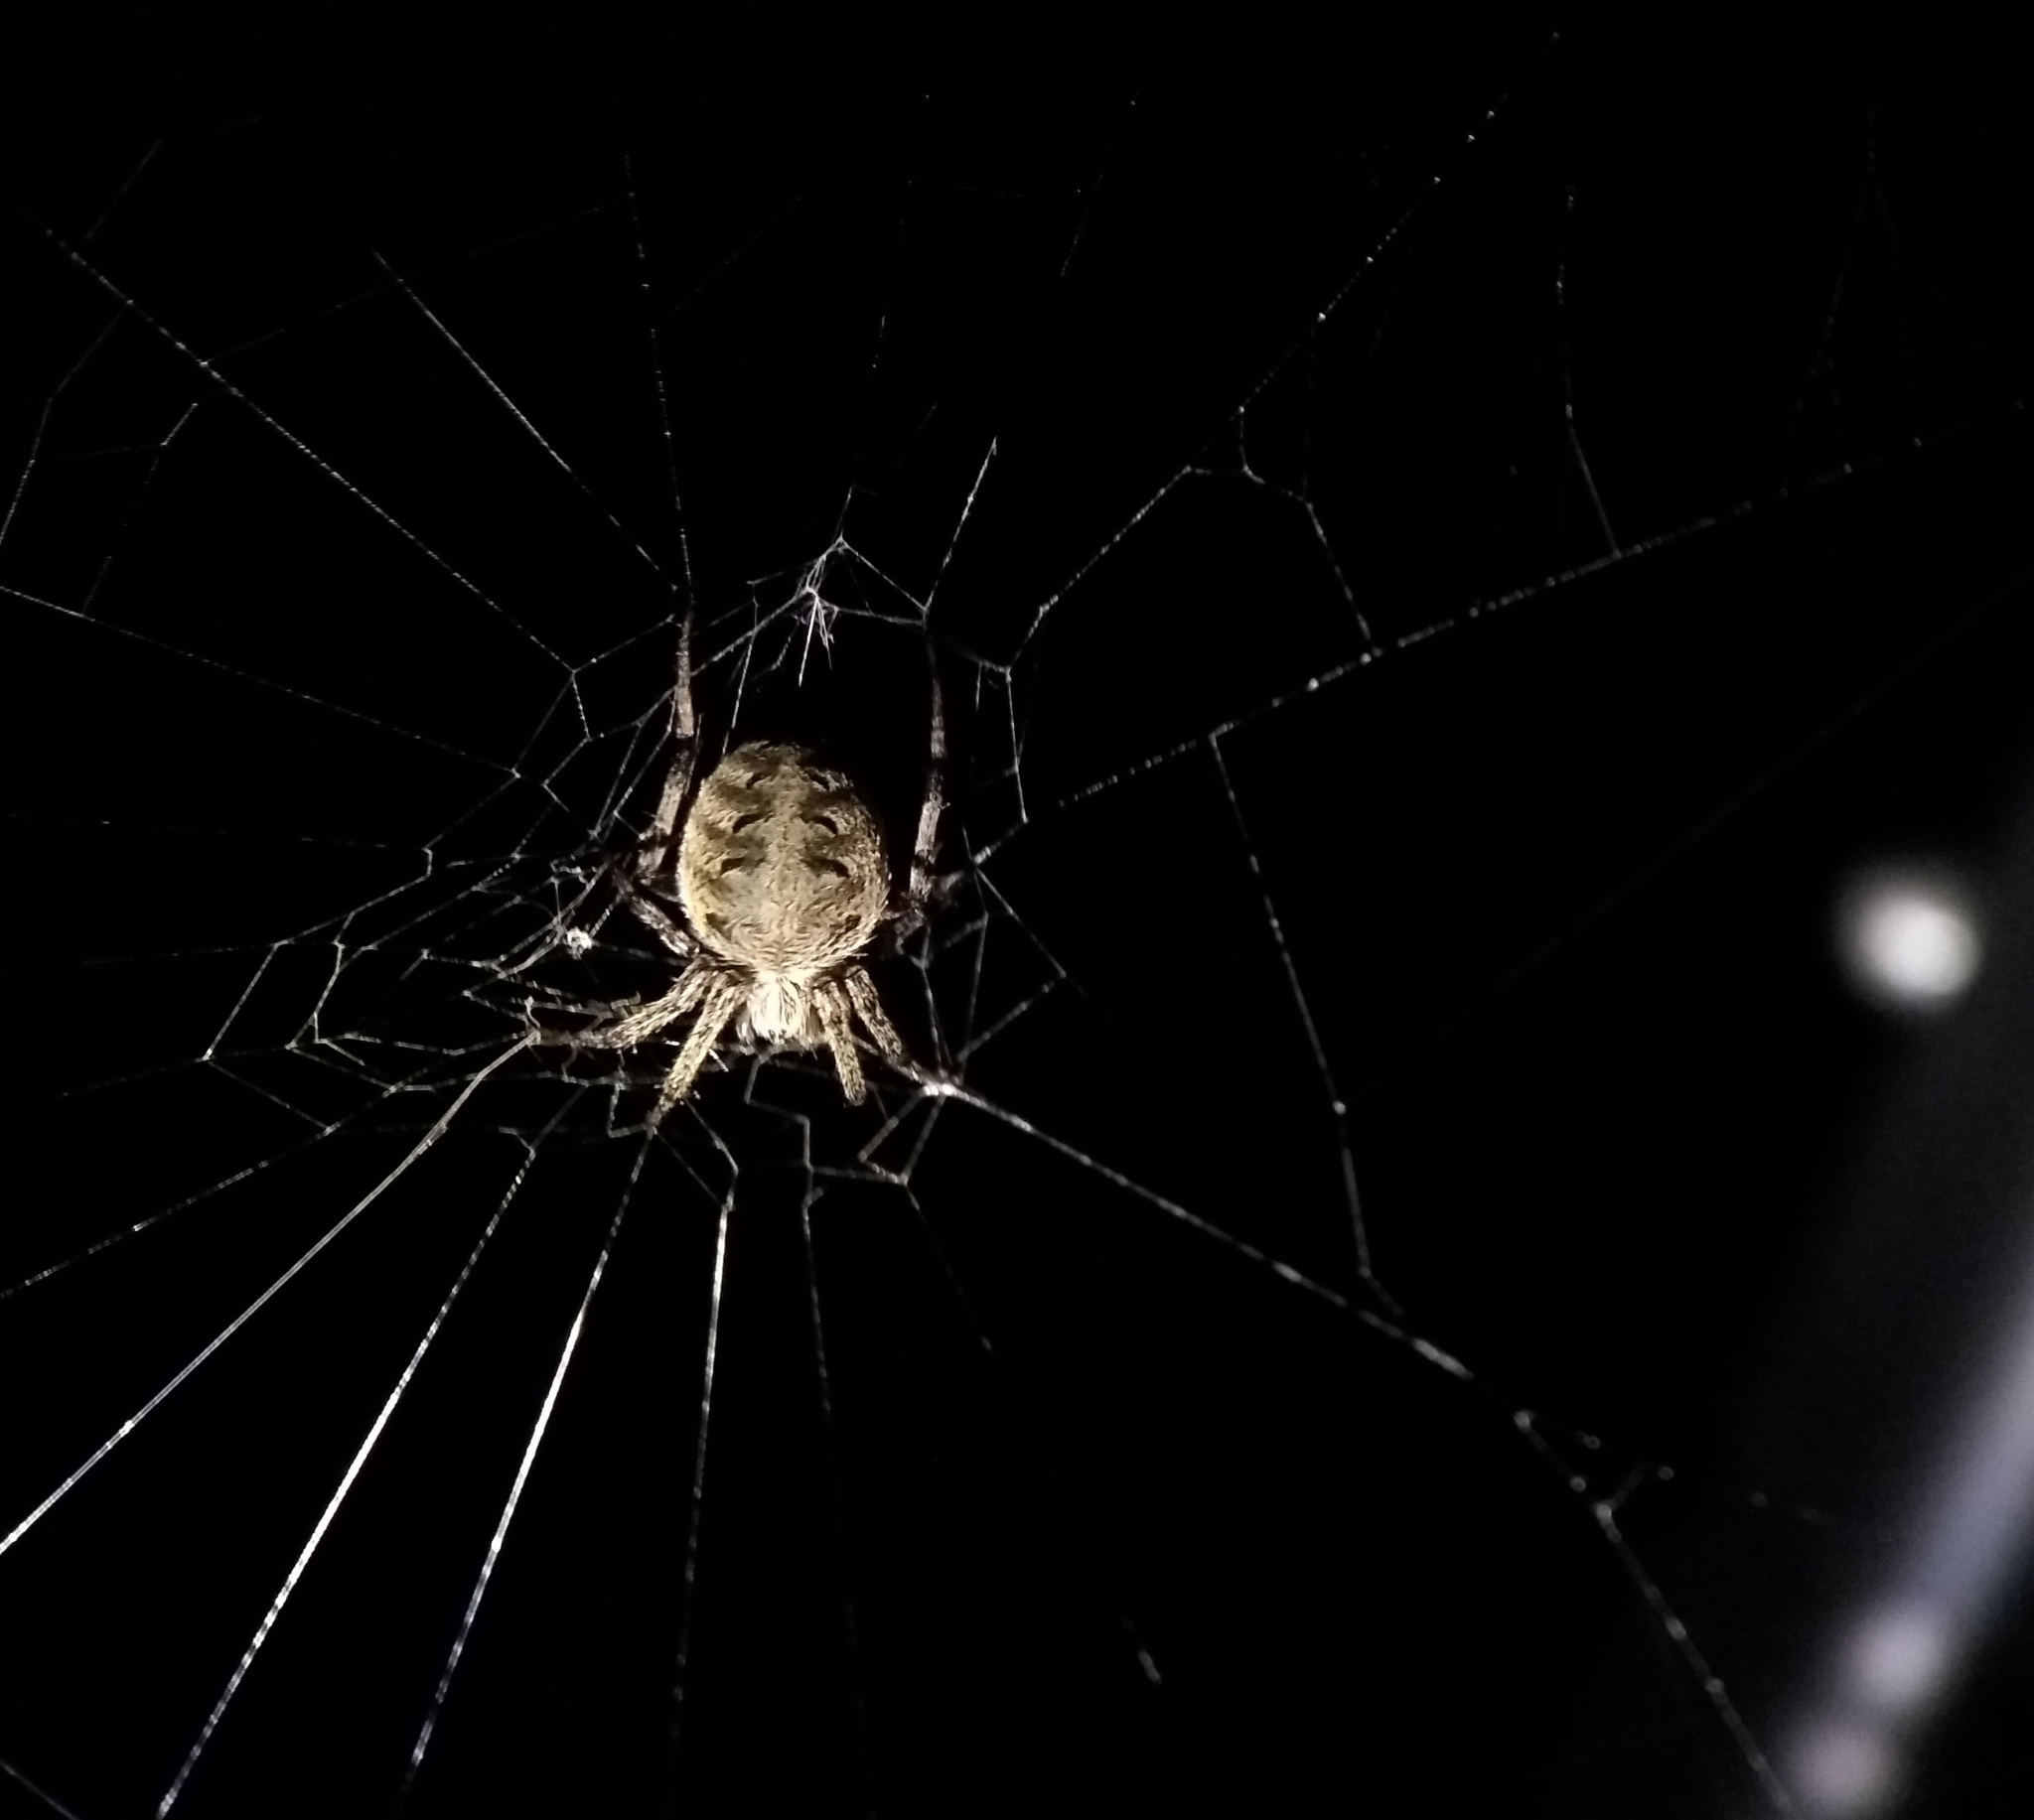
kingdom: Animalia
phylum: Arthropoda
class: Arachnida
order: Araneae
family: Araneidae
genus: Neoscona
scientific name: Neoscona arabesca
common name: Orb weavers
